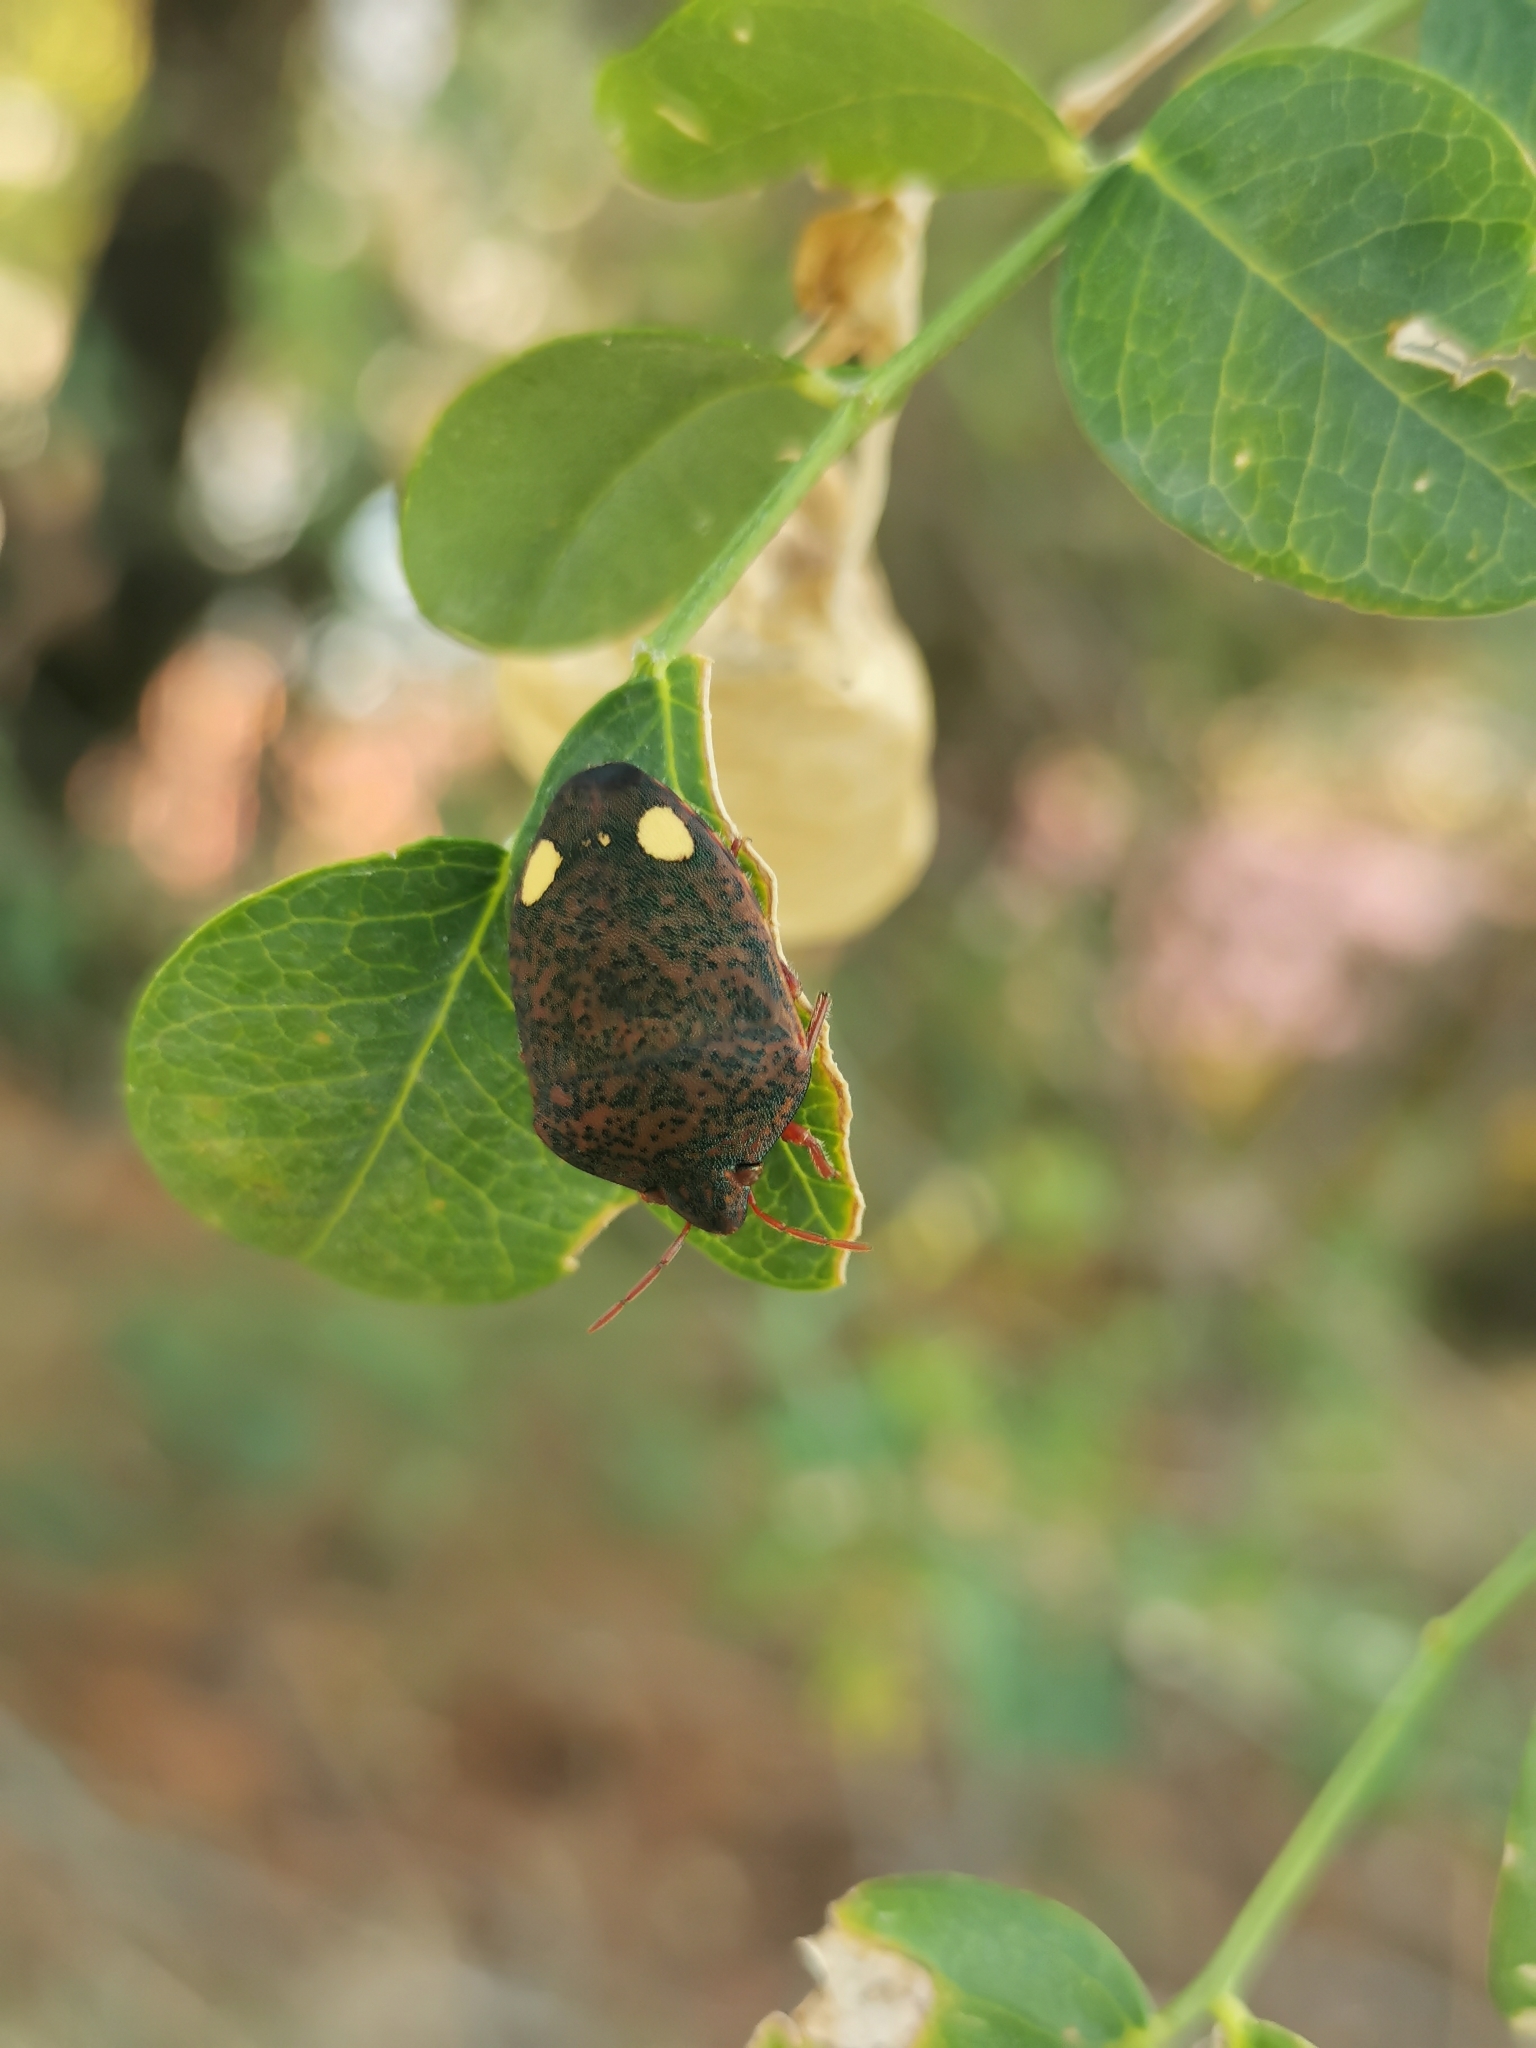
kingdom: Animalia
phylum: Arthropoda
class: Insecta
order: Hemiptera
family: Scutelleridae
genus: Solenosthedium
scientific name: Solenosthedium bilunatum
